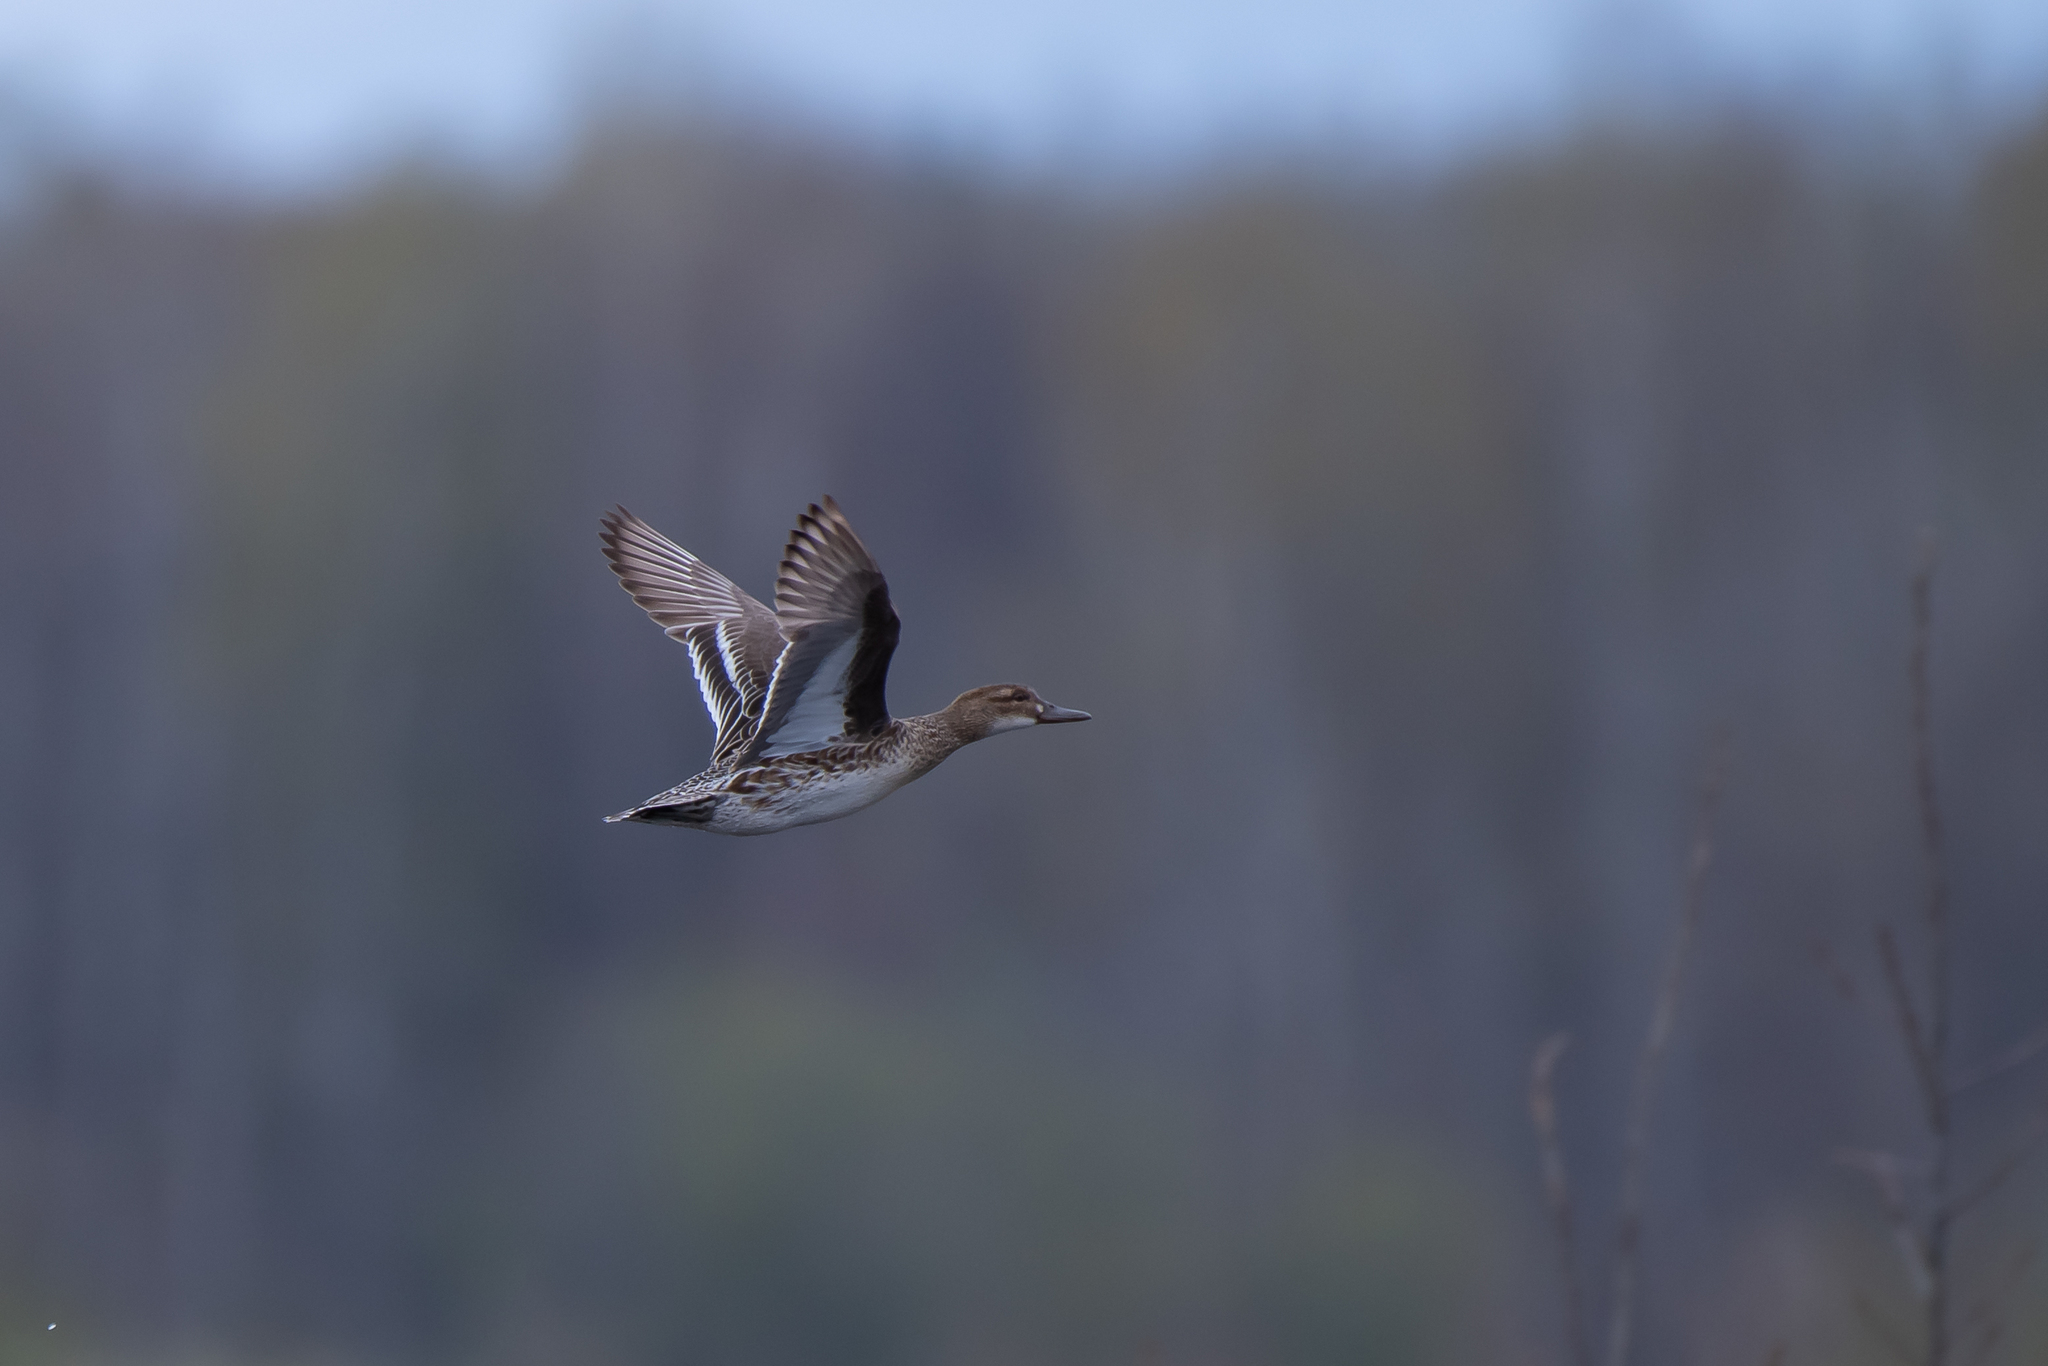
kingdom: Animalia
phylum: Chordata
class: Aves
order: Anseriformes
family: Anatidae
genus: Spatula
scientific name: Spatula querquedula
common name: Garganey
